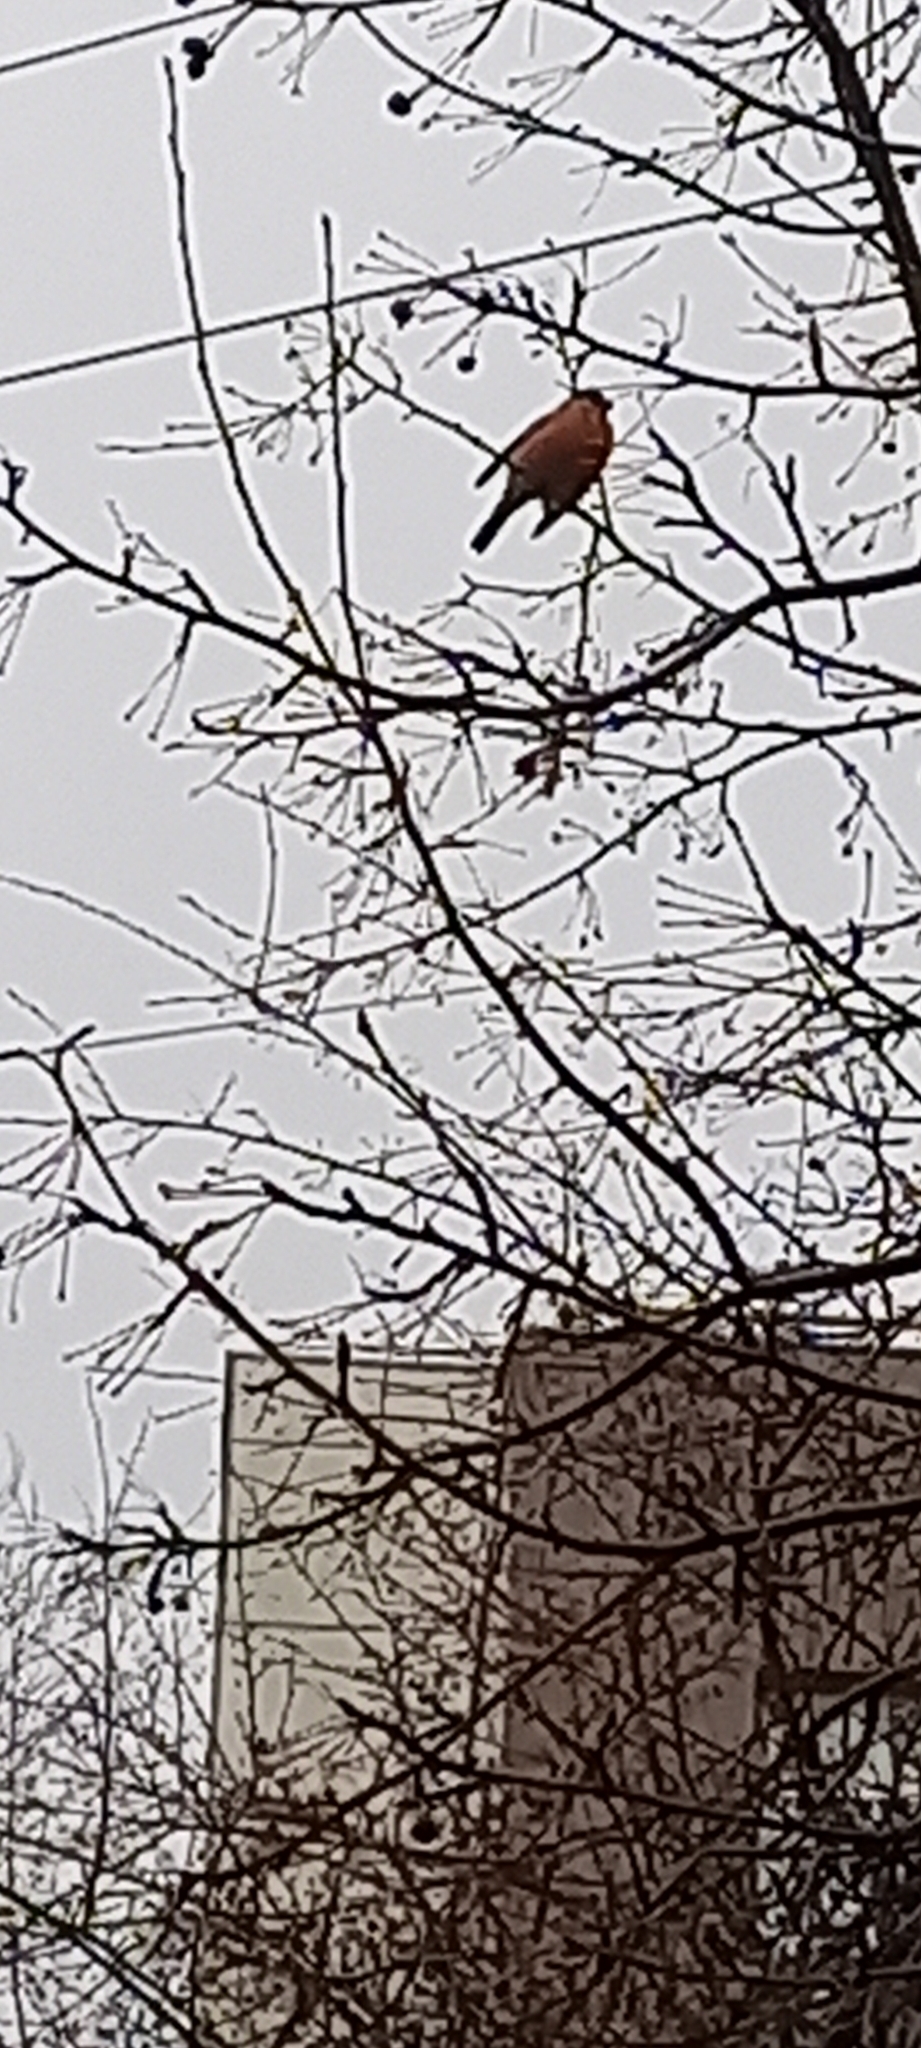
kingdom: Animalia
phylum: Chordata
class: Aves
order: Passeriformes
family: Fringillidae
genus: Pyrrhula
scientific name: Pyrrhula pyrrhula
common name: Eurasian bullfinch
